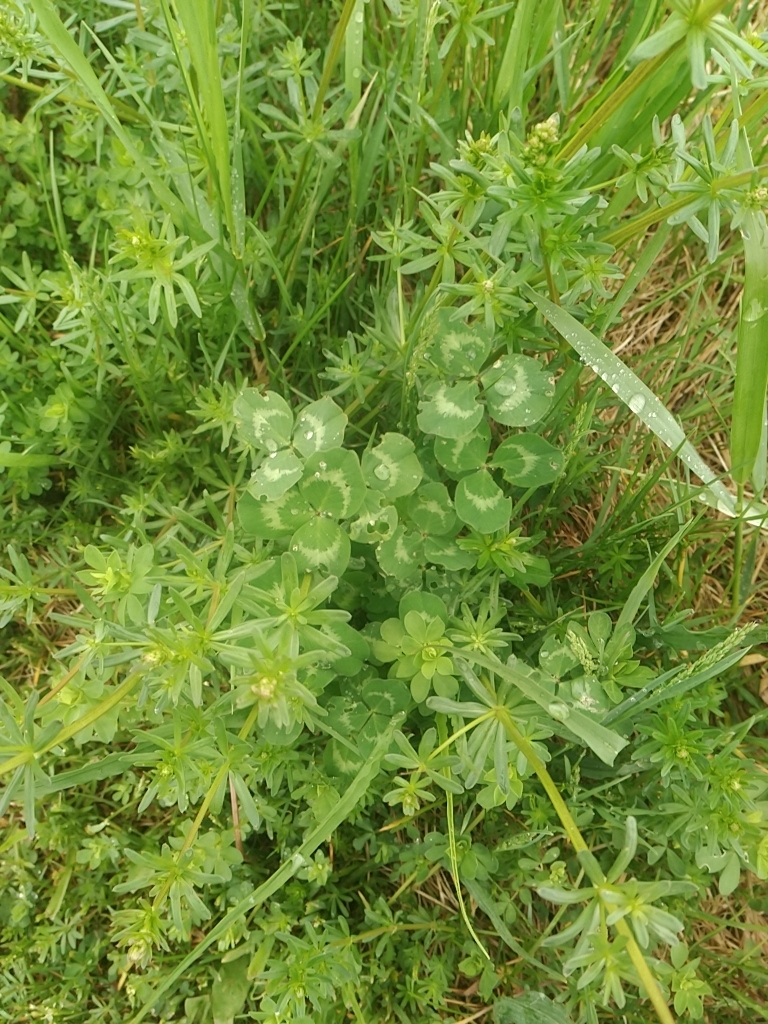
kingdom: Plantae
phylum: Tracheophyta
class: Magnoliopsida
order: Fabales
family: Fabaceae
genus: Trifolium
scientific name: Trifolium pratense
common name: Red clover
